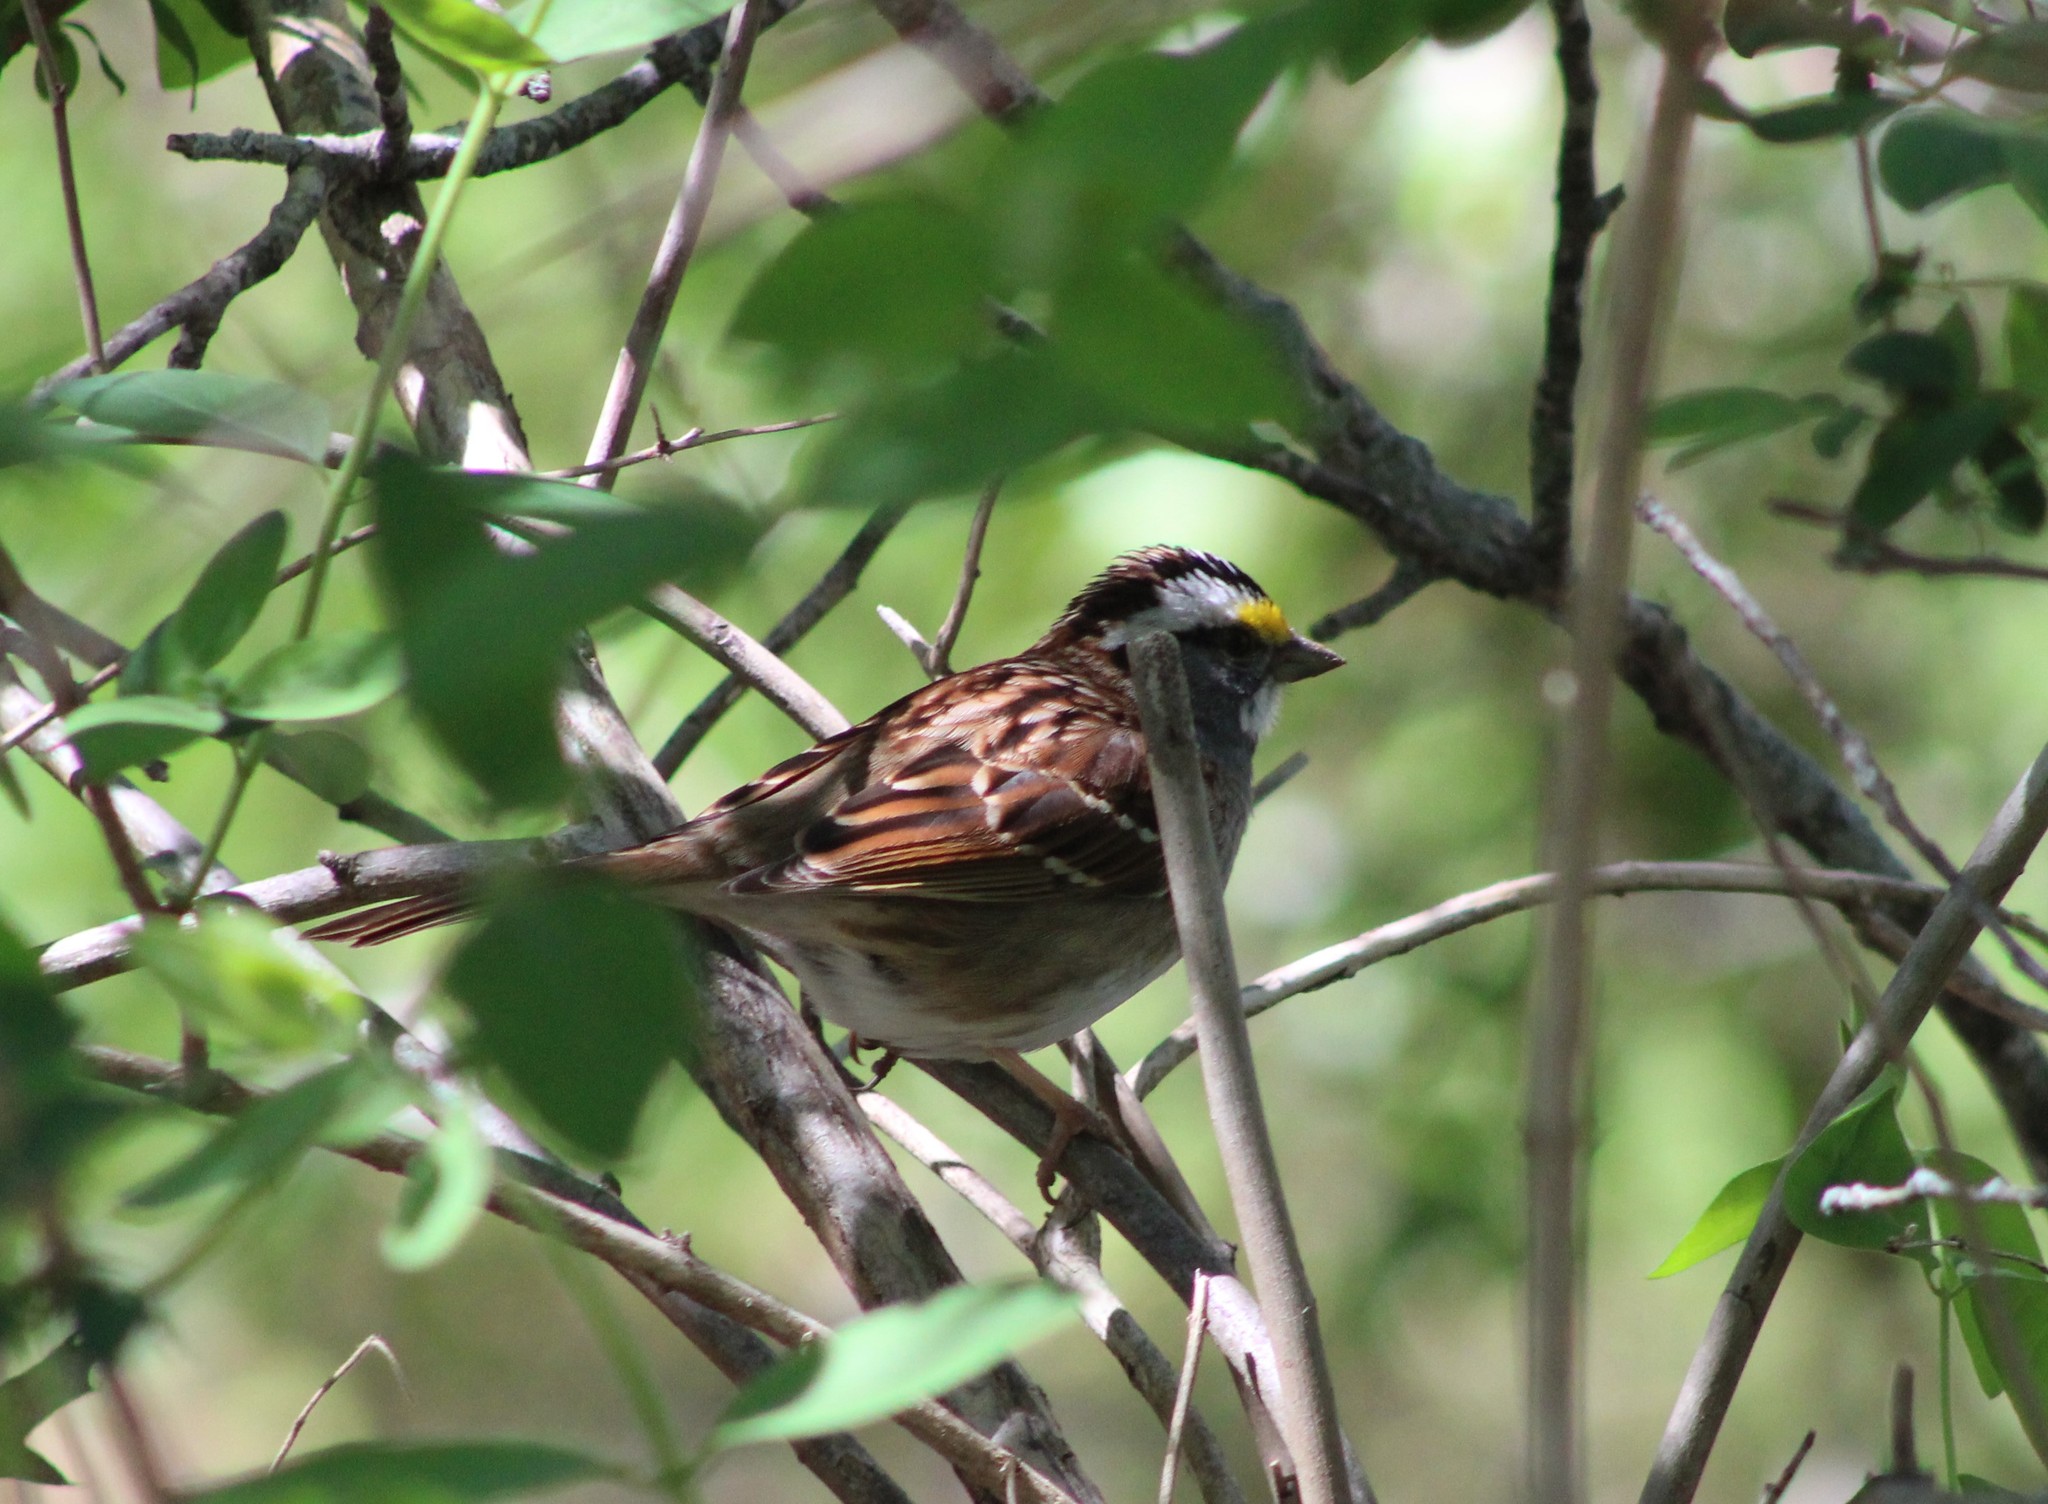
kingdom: Animalia
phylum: Chordata
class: Aves
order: Passeriformes
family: Passerellidae
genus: Zonotrichia
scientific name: Zonotrichia albicollis
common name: White-throated sparrow
